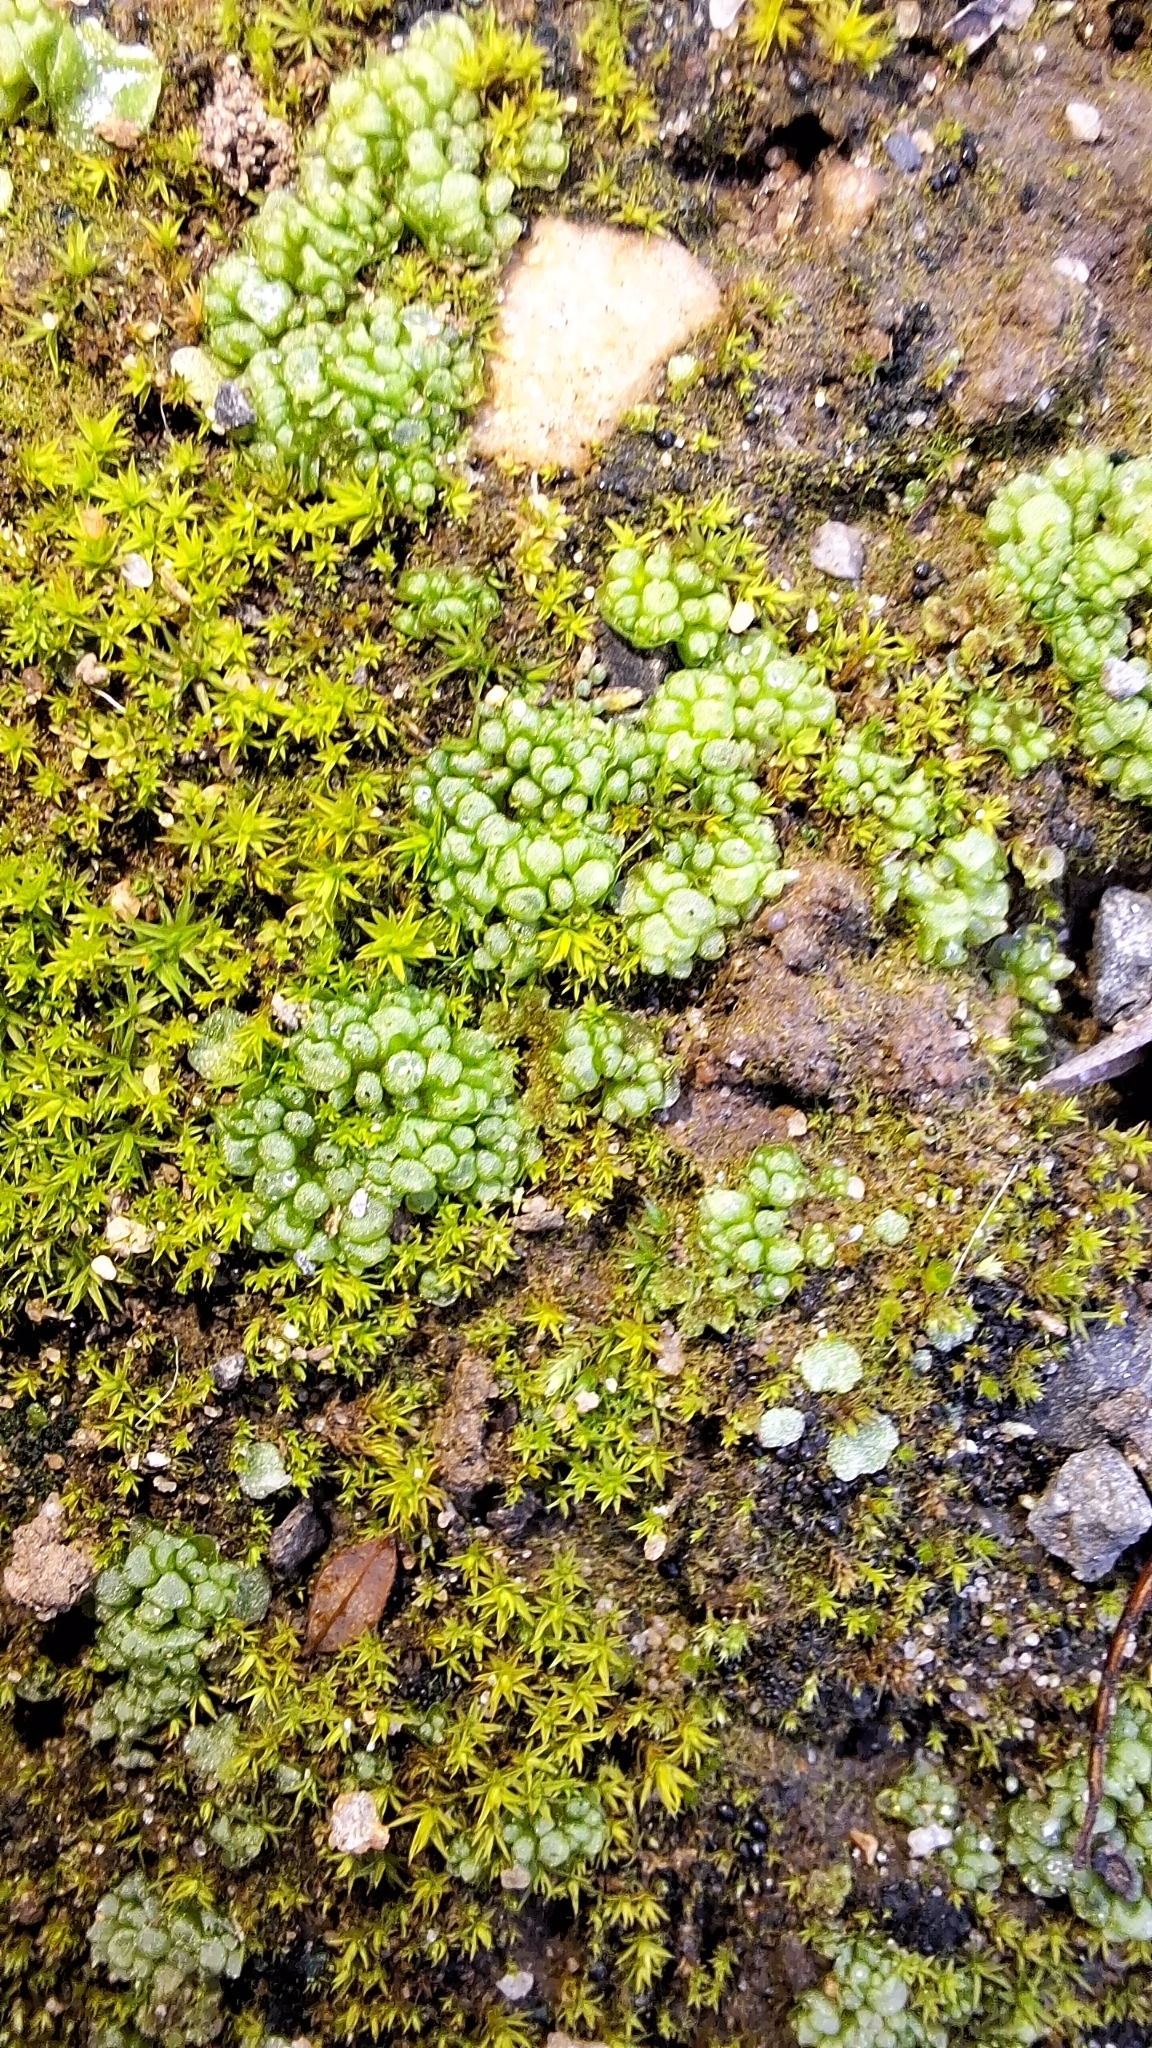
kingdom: Plantae
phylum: Marchantiophyta
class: Marchantiopsida
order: Sphaerocarpales
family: Sphaerocarpaceae
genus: Sphaerocarpos
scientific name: Sphaerocarpos texanus
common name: Texas balloonwort
